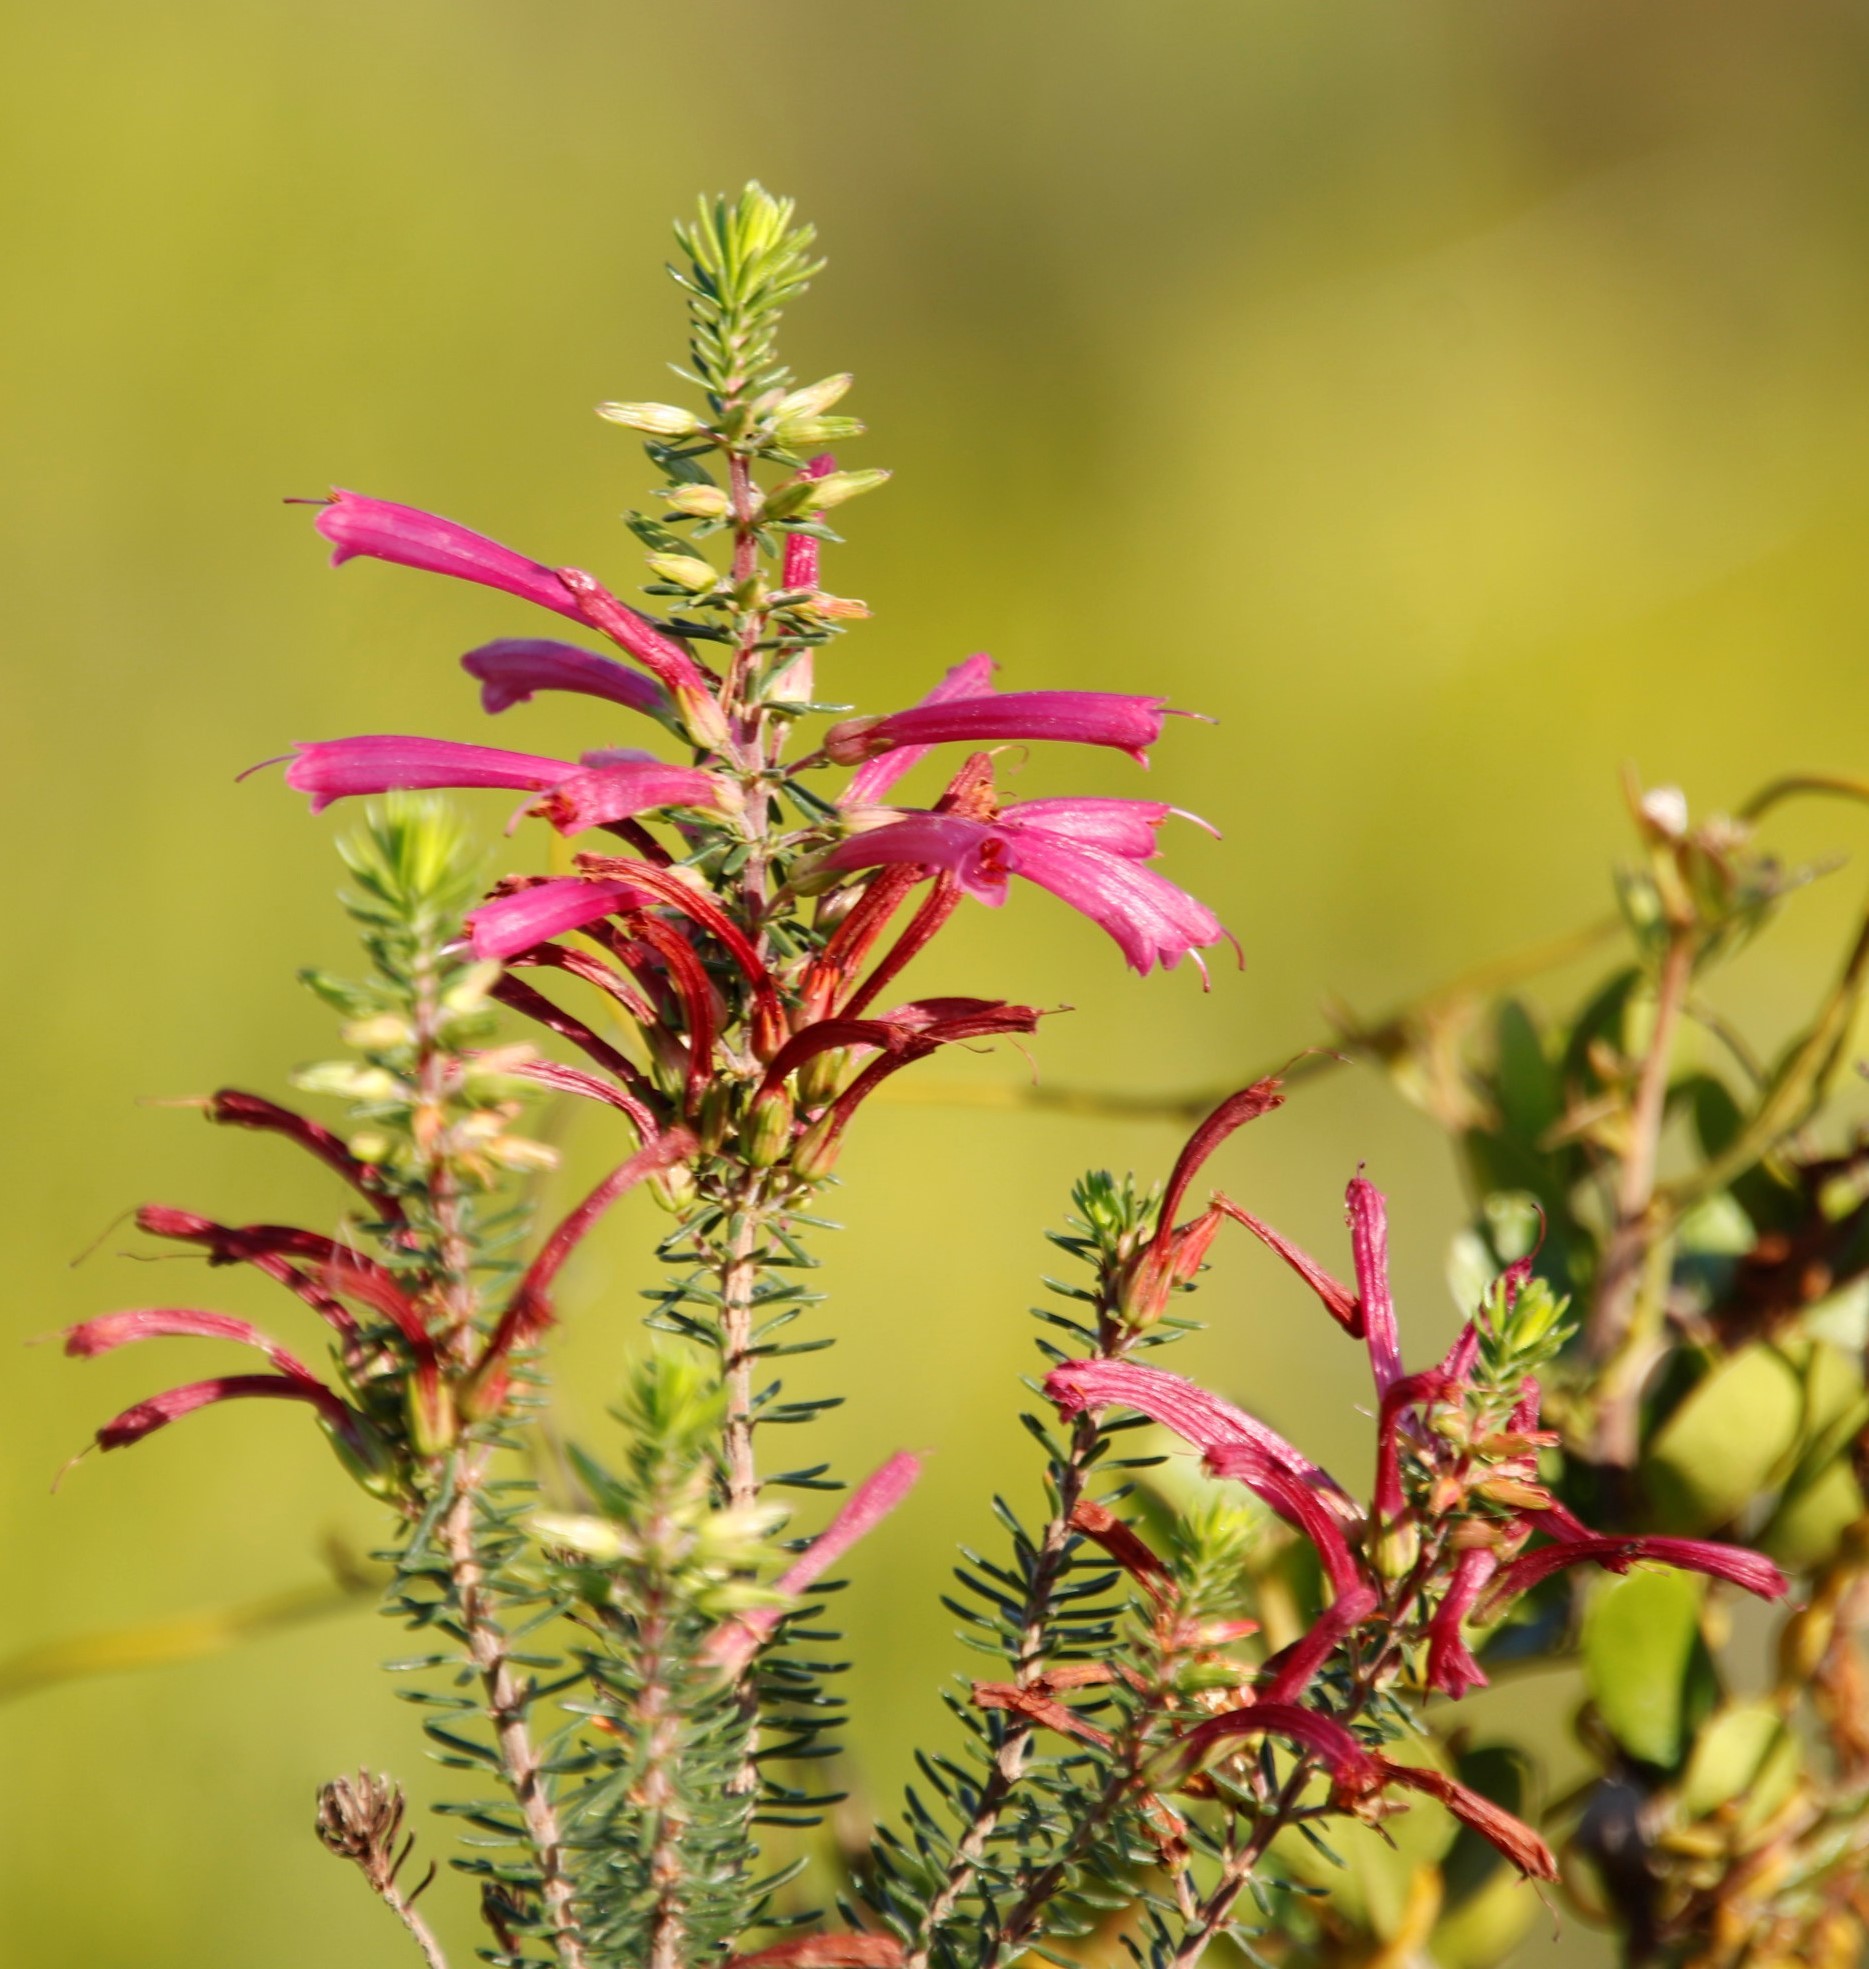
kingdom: Plantae
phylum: Tracheophyta
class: Magnoliopsida
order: Ericales
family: Ericaceae
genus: Erica
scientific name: Erica abietina
